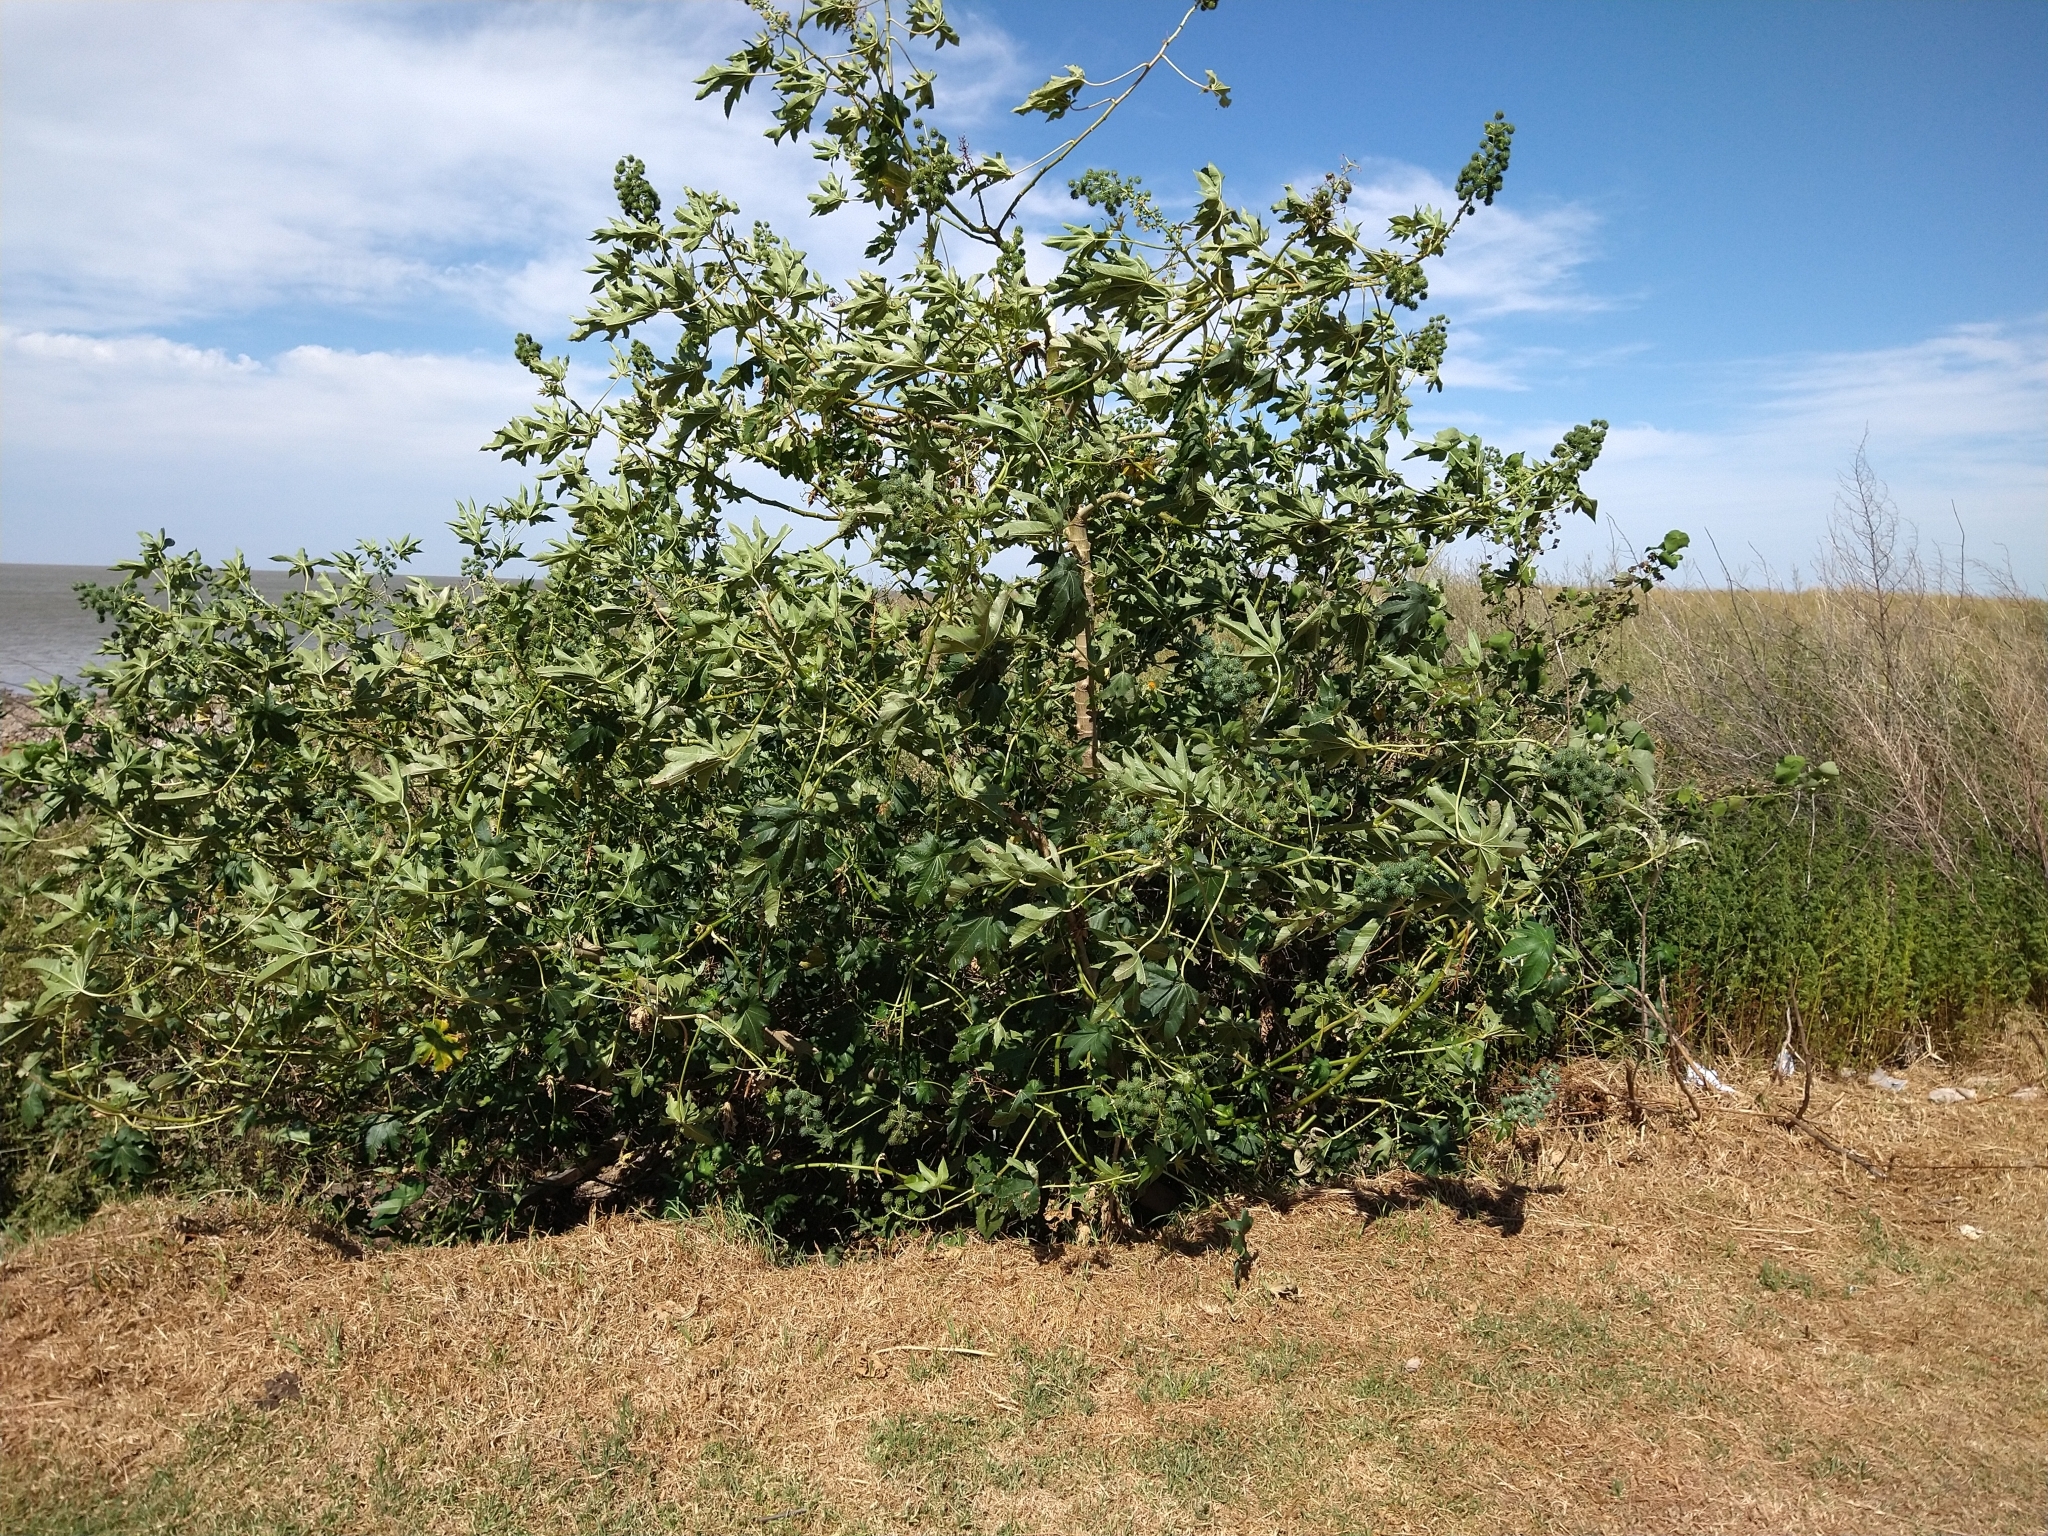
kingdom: Plantae
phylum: Tracheophyta
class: Magnoliopsida
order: Malpighiales
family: Euphorbiaceae
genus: Ricinus
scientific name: Ricinus communis
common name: Castor-oil-plant
